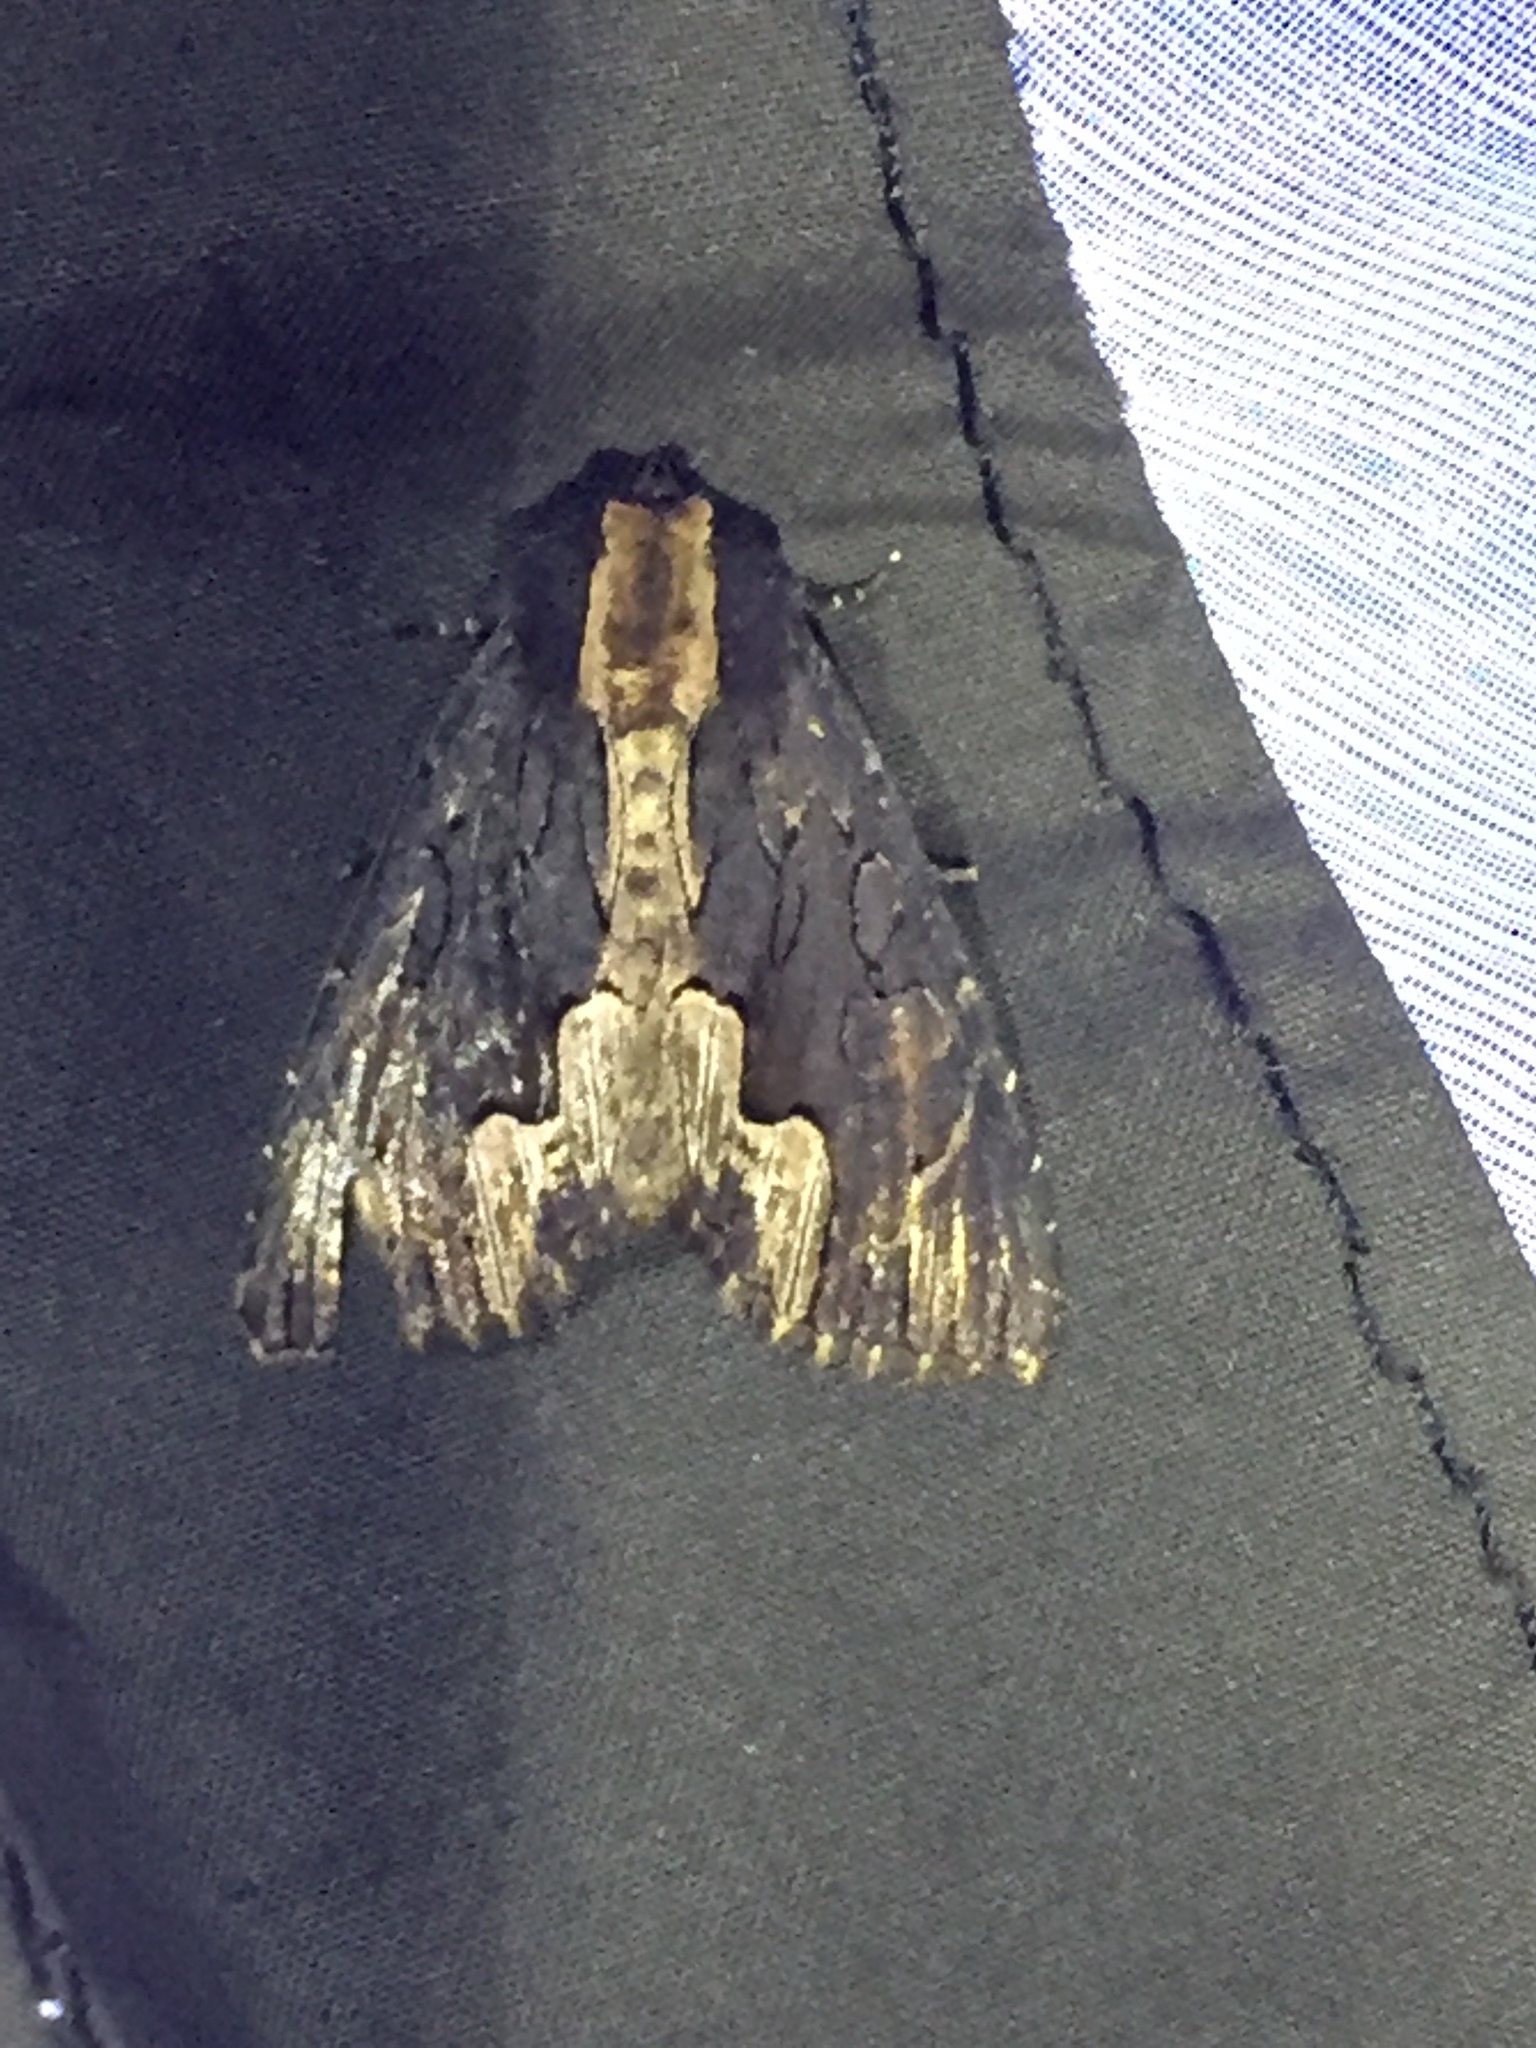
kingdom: Animalia
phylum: Arthropoda
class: Insecta
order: Lepidoptera
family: Noctuidae
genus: Dypterygia
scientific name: Dypterygia scabriuscula
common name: Bird's wing
